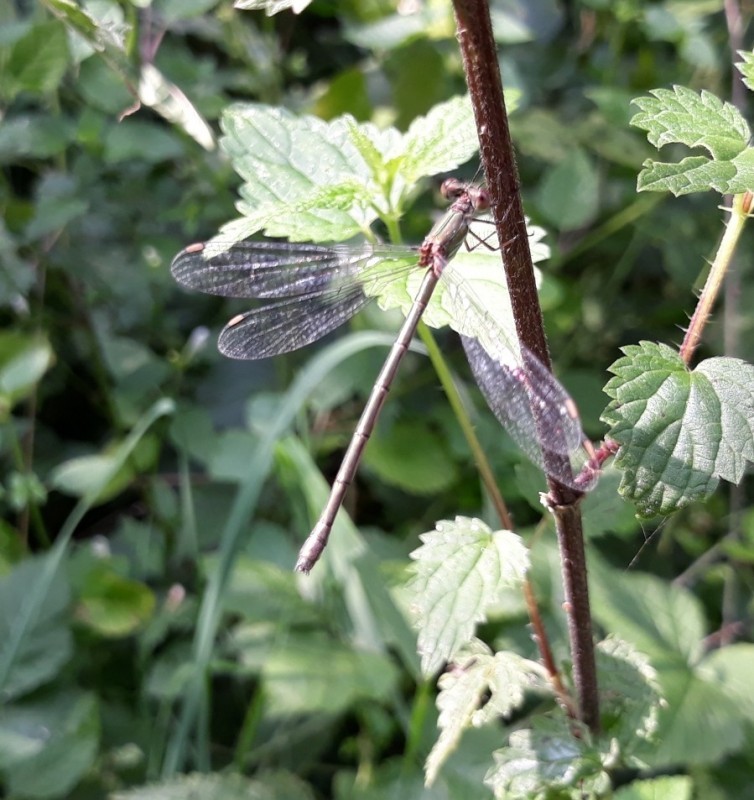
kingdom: Animalia
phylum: Arthropoda
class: Insecta
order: Odonata
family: Lestidae
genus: Chalcolestes
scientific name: Chalcolestes viridis
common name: Green emerald damselfly
